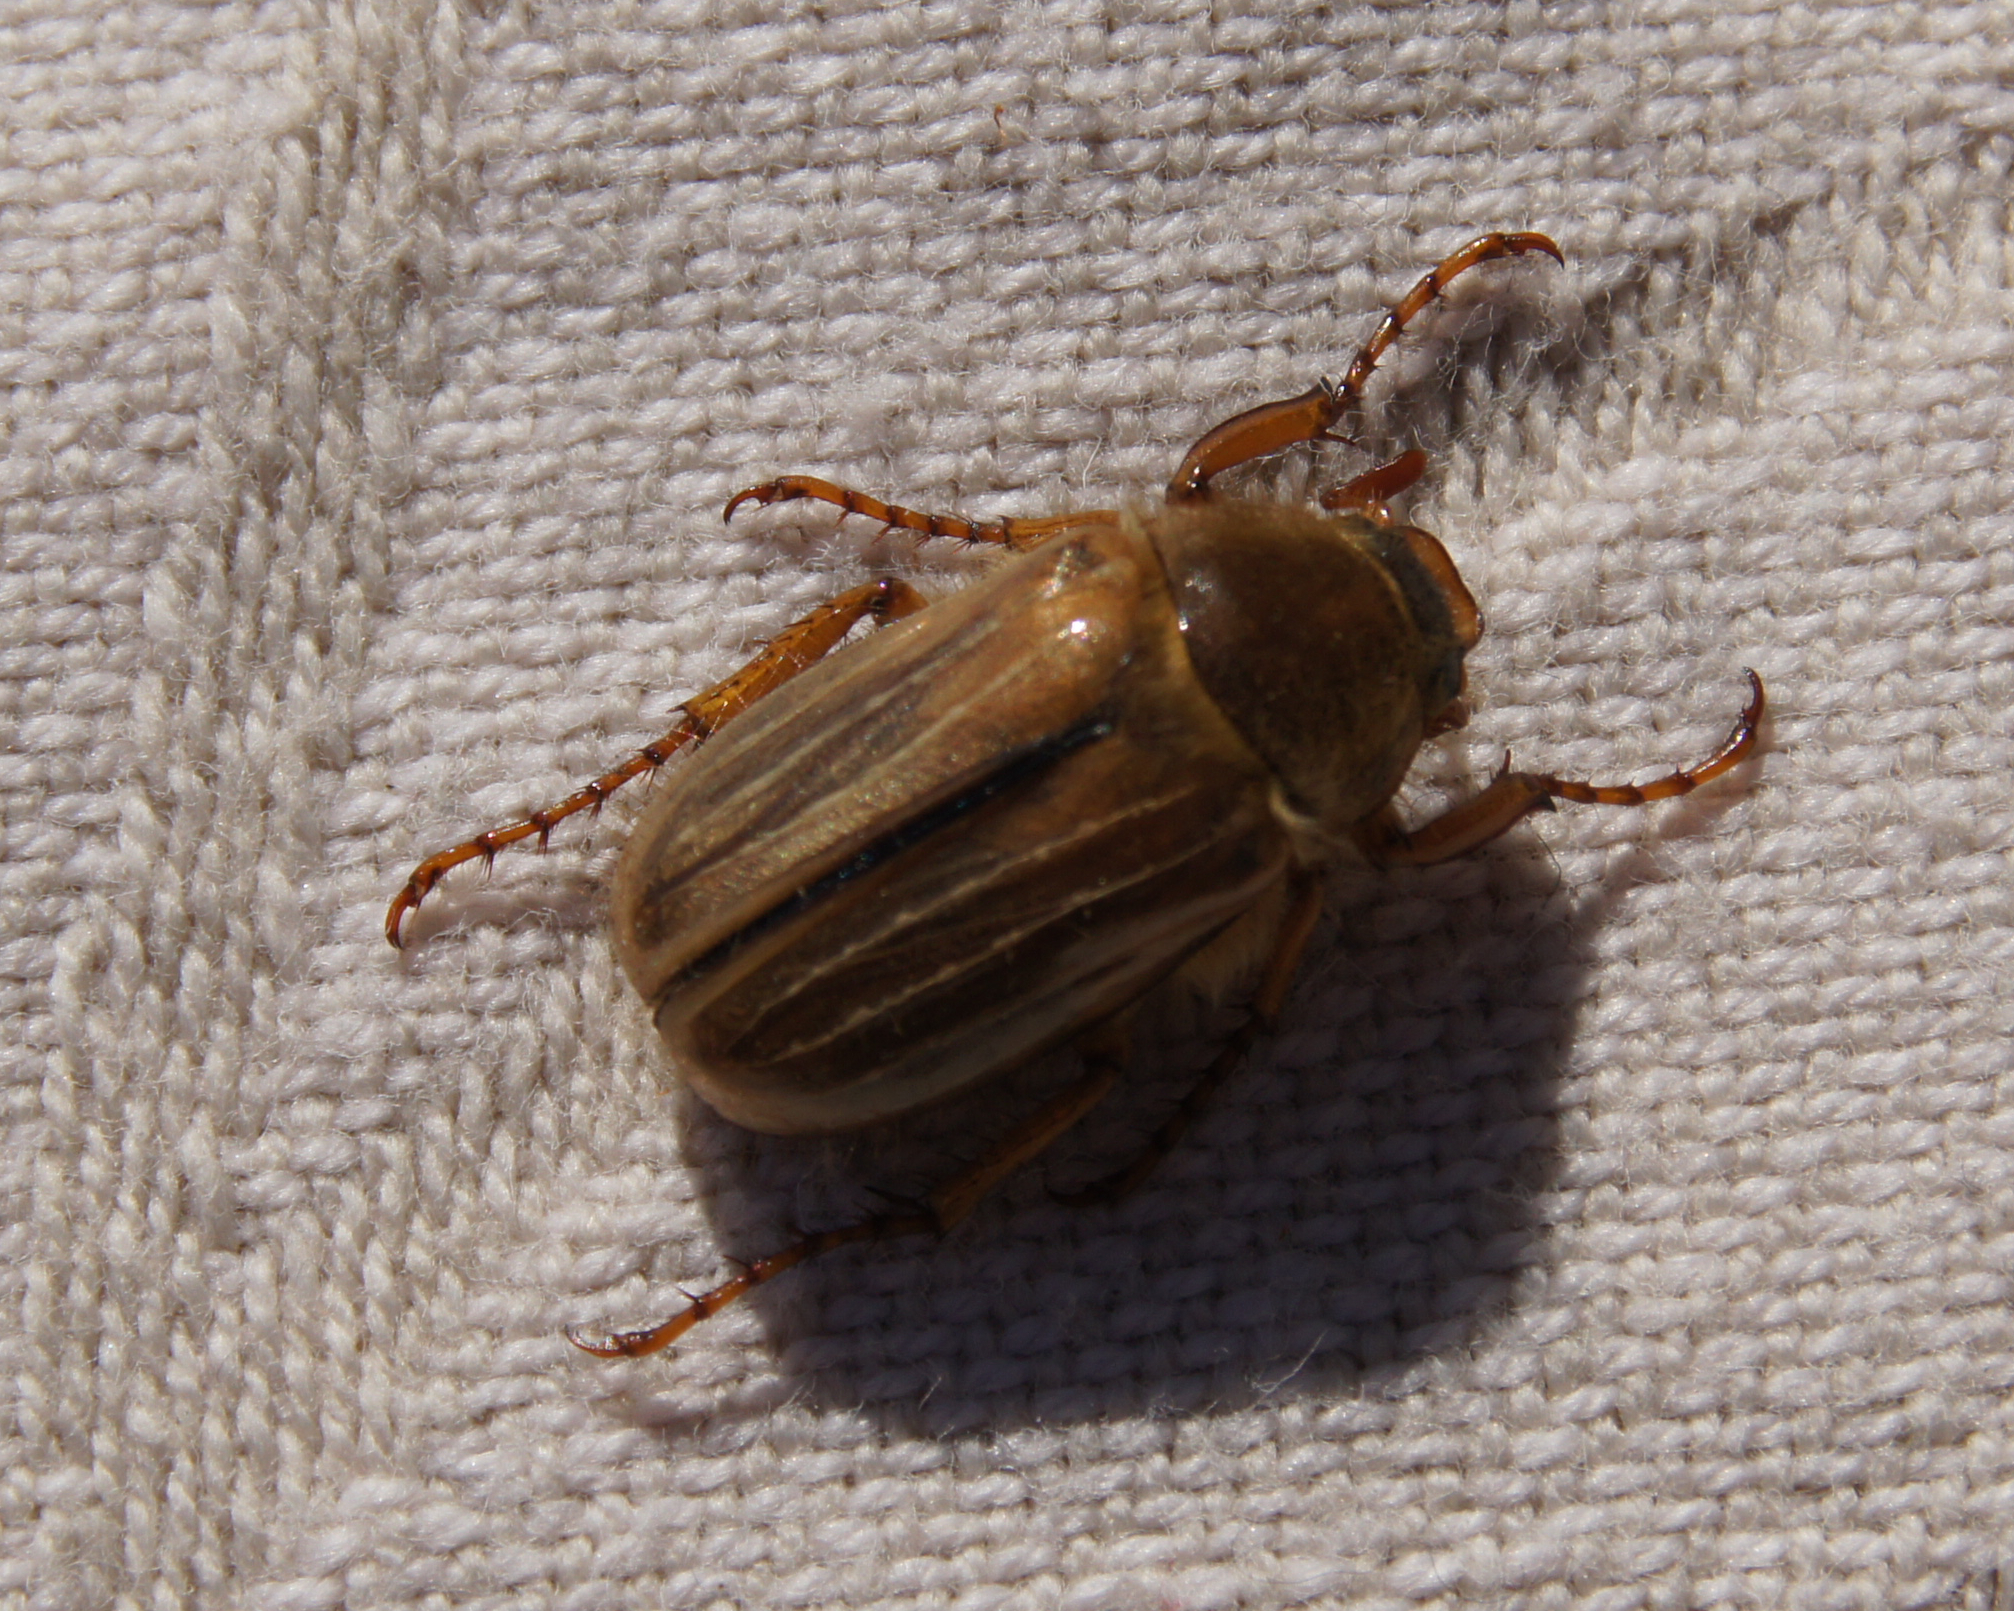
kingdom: Animalia
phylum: Arthropoda
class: Insecta
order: Coleoptera
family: Scarabaeidae
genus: Amphimallon
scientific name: Amphimallon solstitiale
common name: Summer chafer
